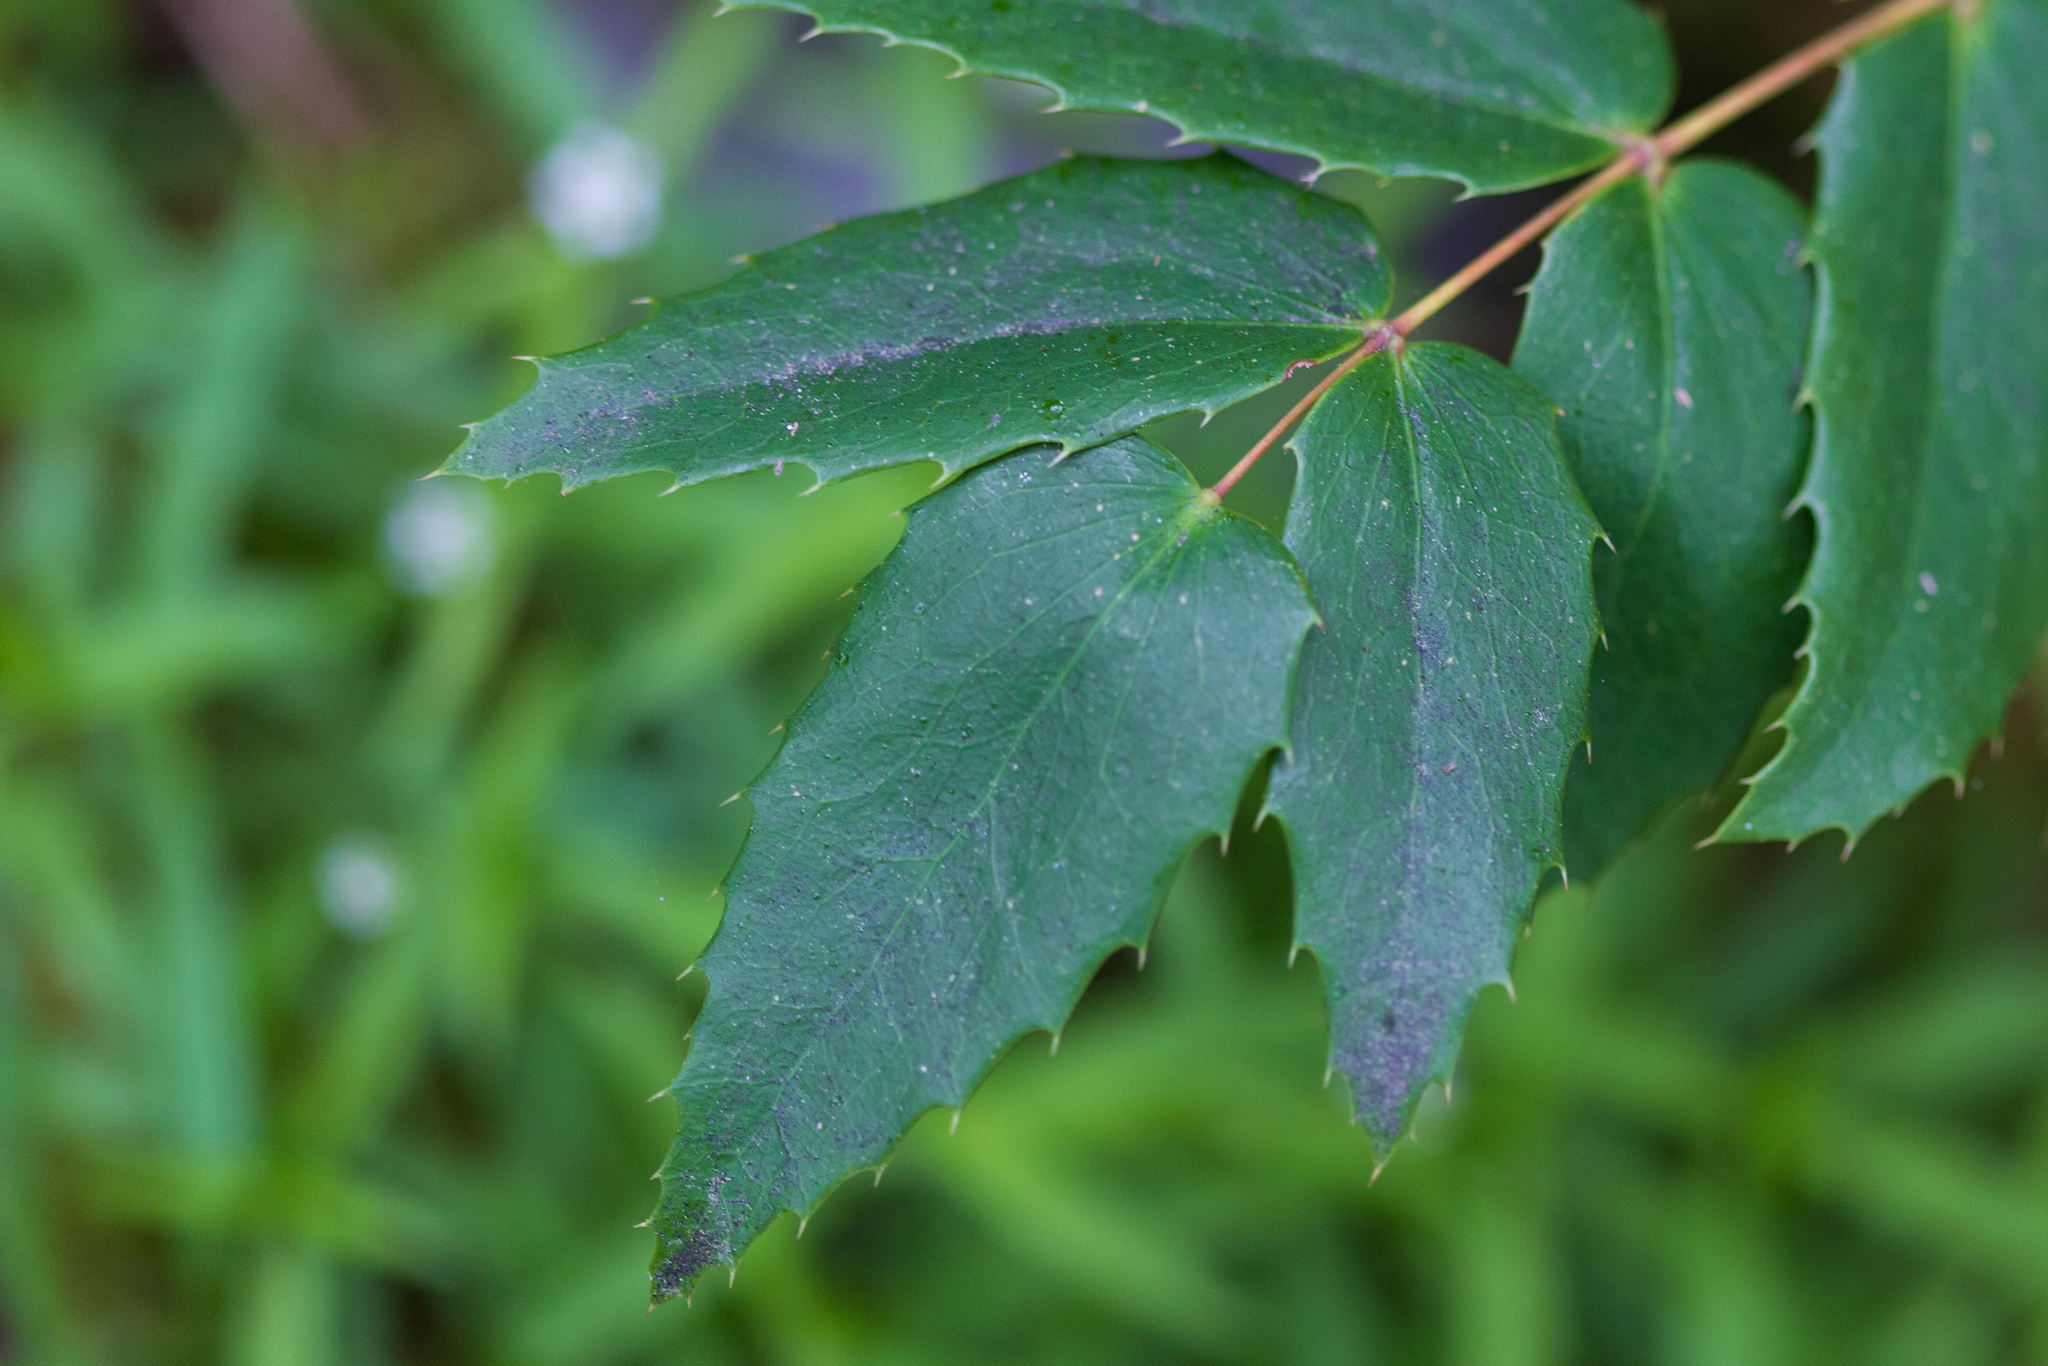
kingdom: Plantae
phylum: Tracheophyta
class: Magnoliopsida
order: Ranunculales
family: Berberidaceae
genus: Mahonia
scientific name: Mahonia nervosa
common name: Cascade oregon-grape
